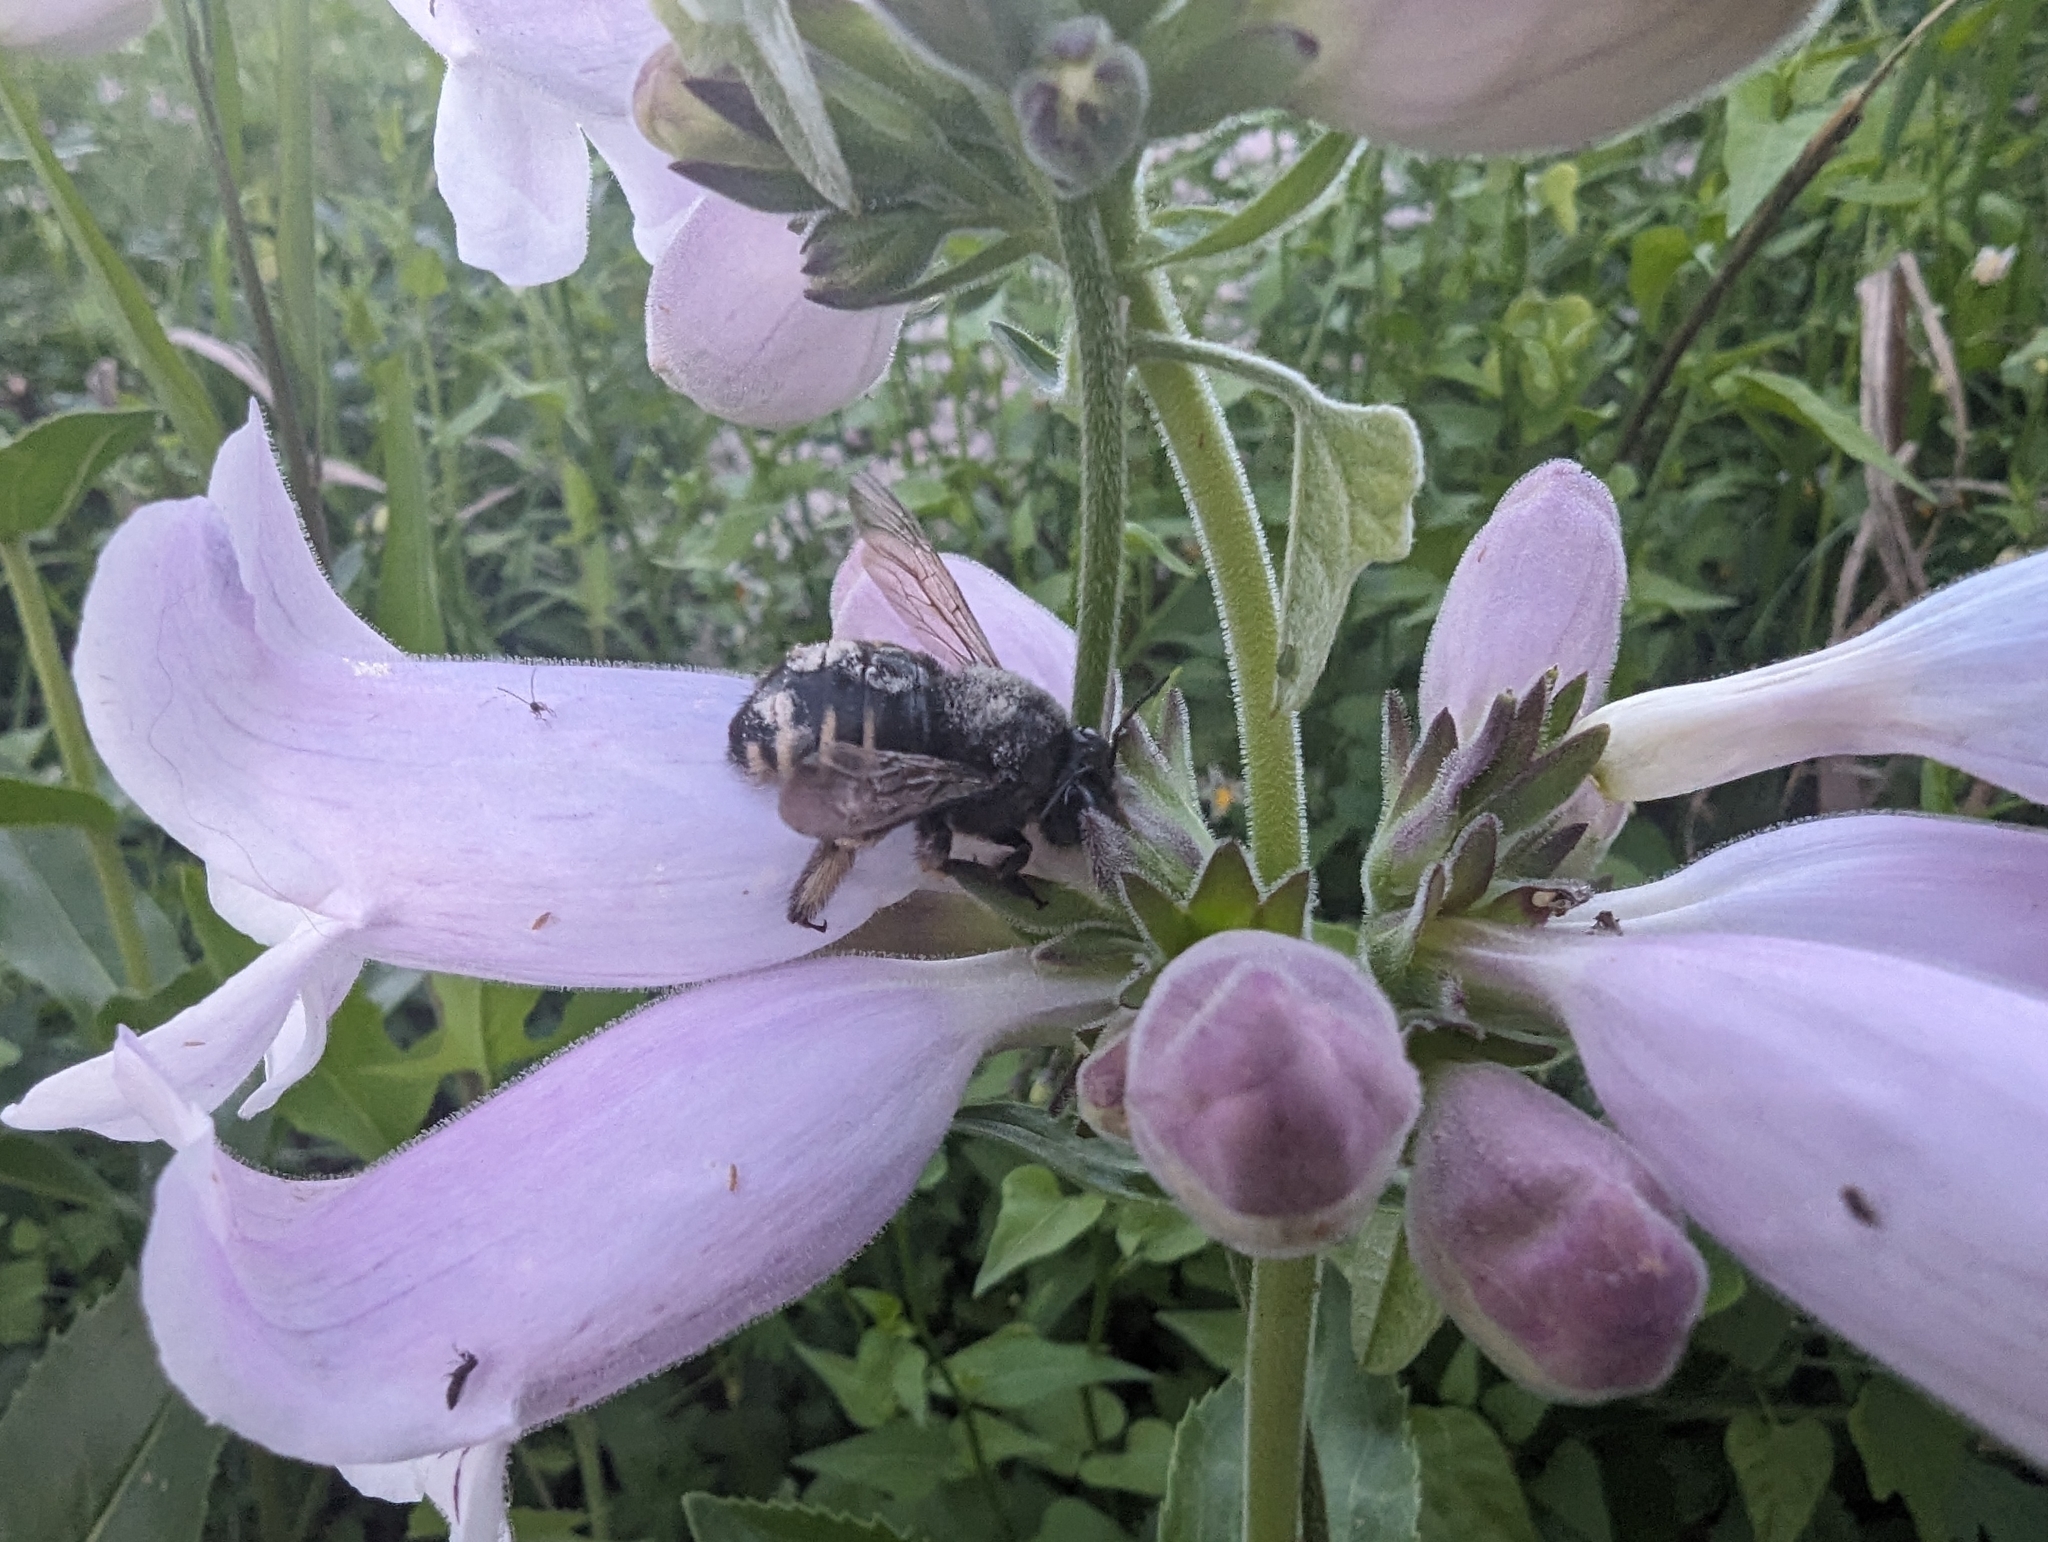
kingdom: Animalia
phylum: Arthropoda
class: Insecta
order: Hymenoptera
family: Apidae
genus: Xylocopa
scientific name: Xylocopa tabaniformis
